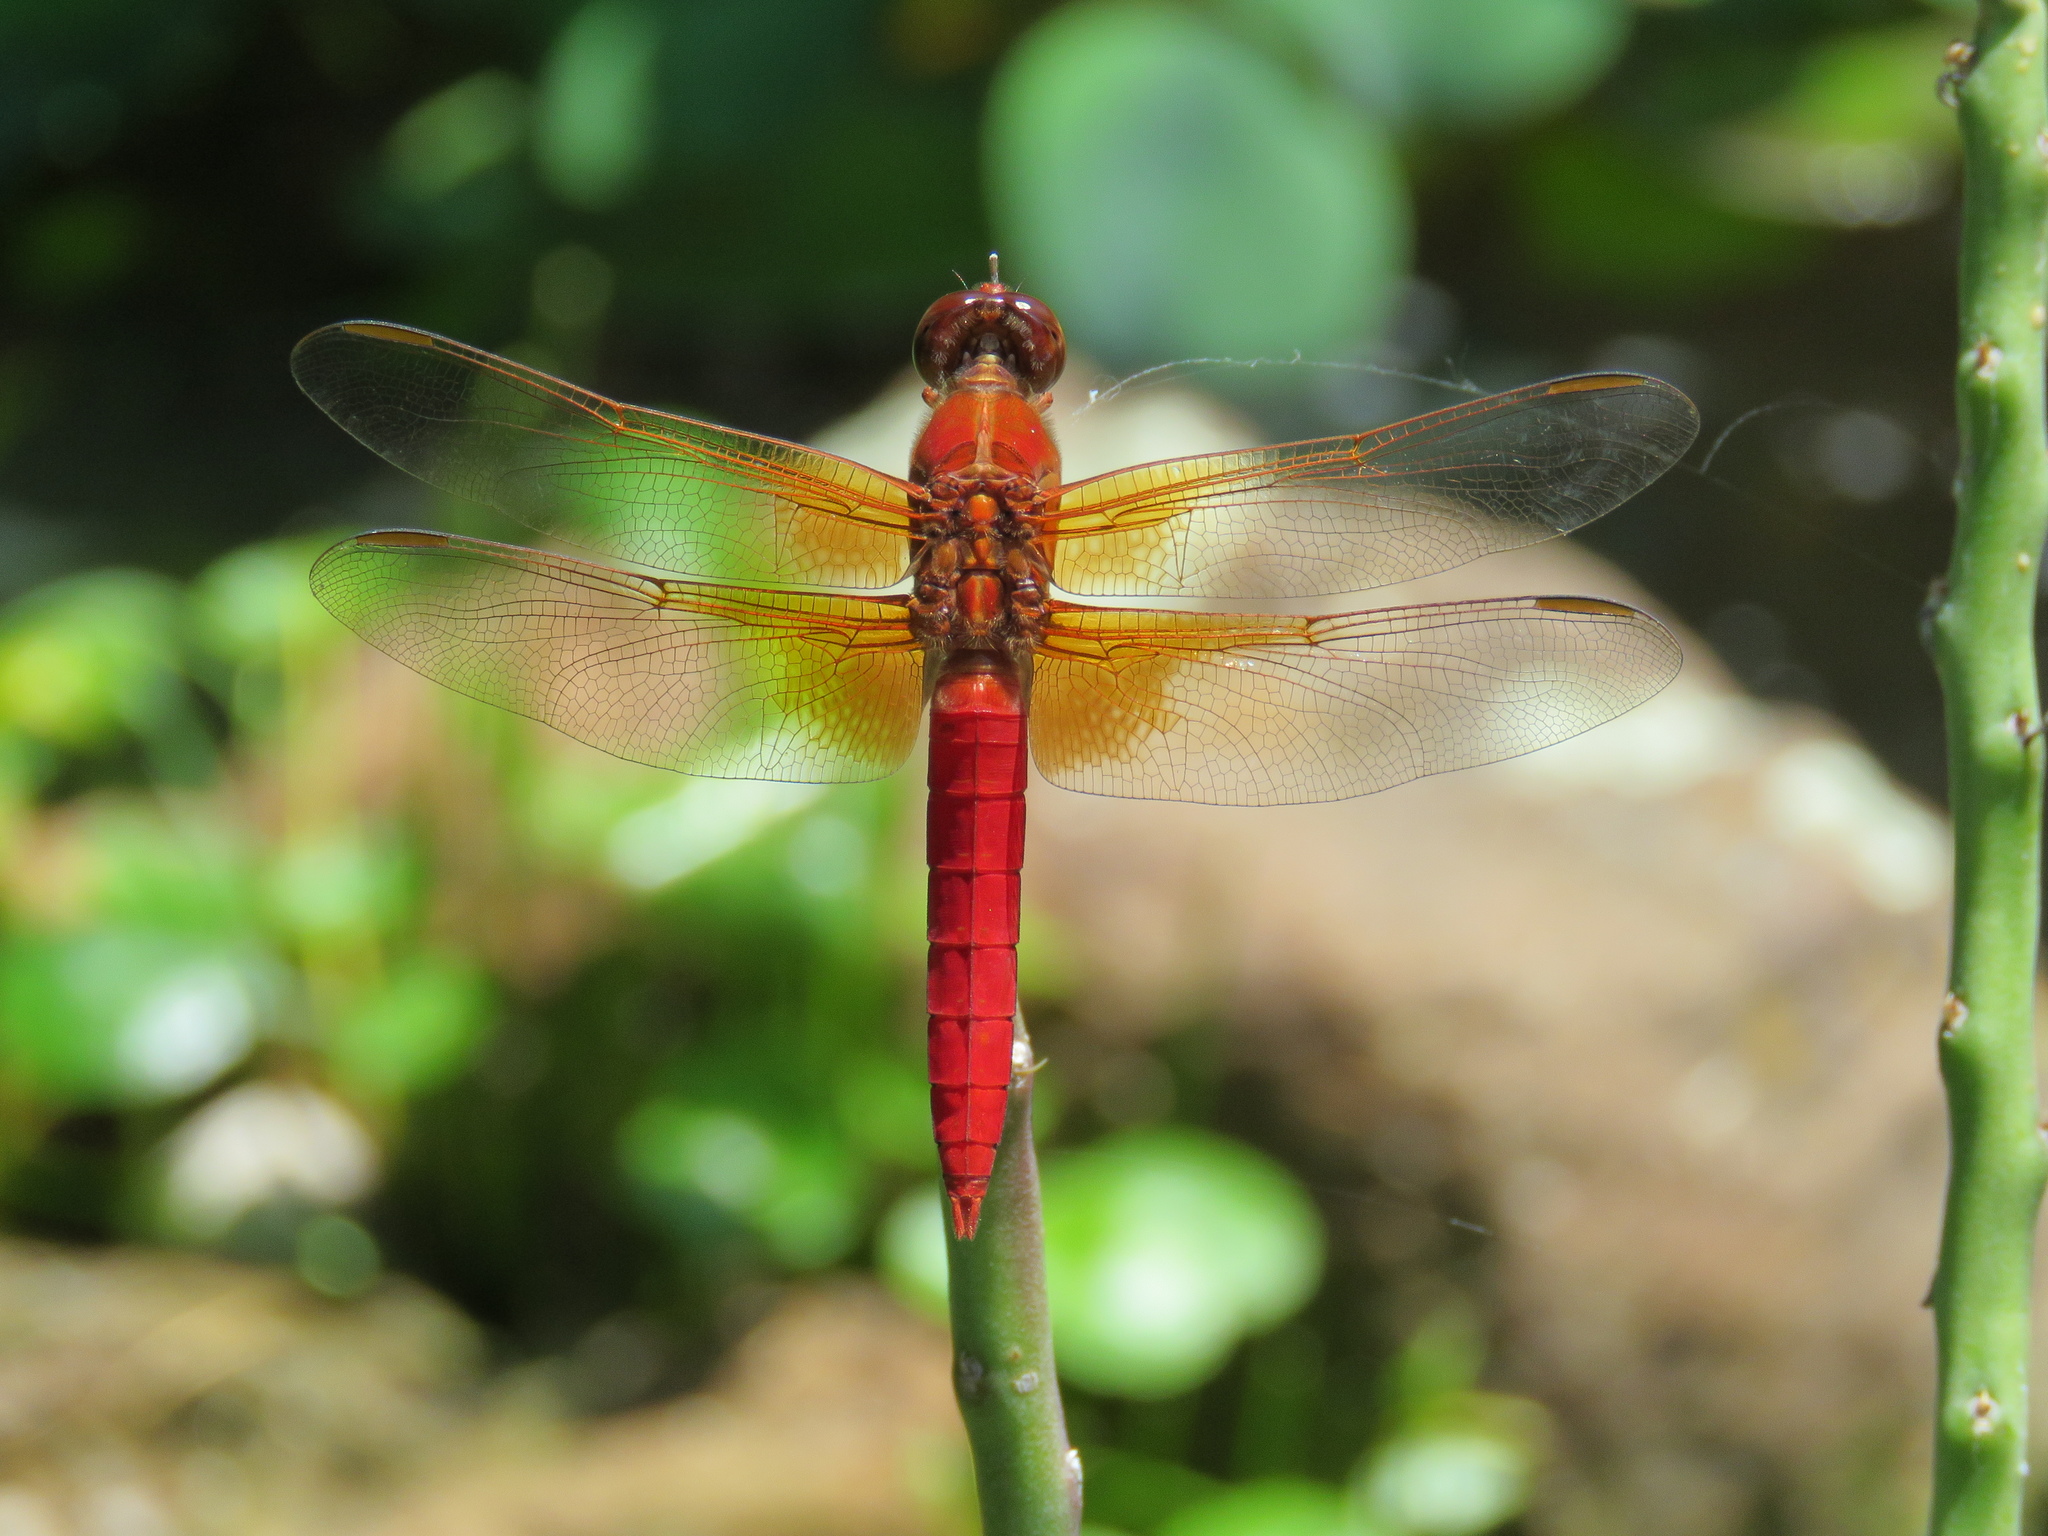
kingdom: Animalia
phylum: Arthropoda
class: Insecta
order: Odonata
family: Libellulidae
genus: Libellula
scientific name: Libellula croceipennis
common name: Neon skimmer
